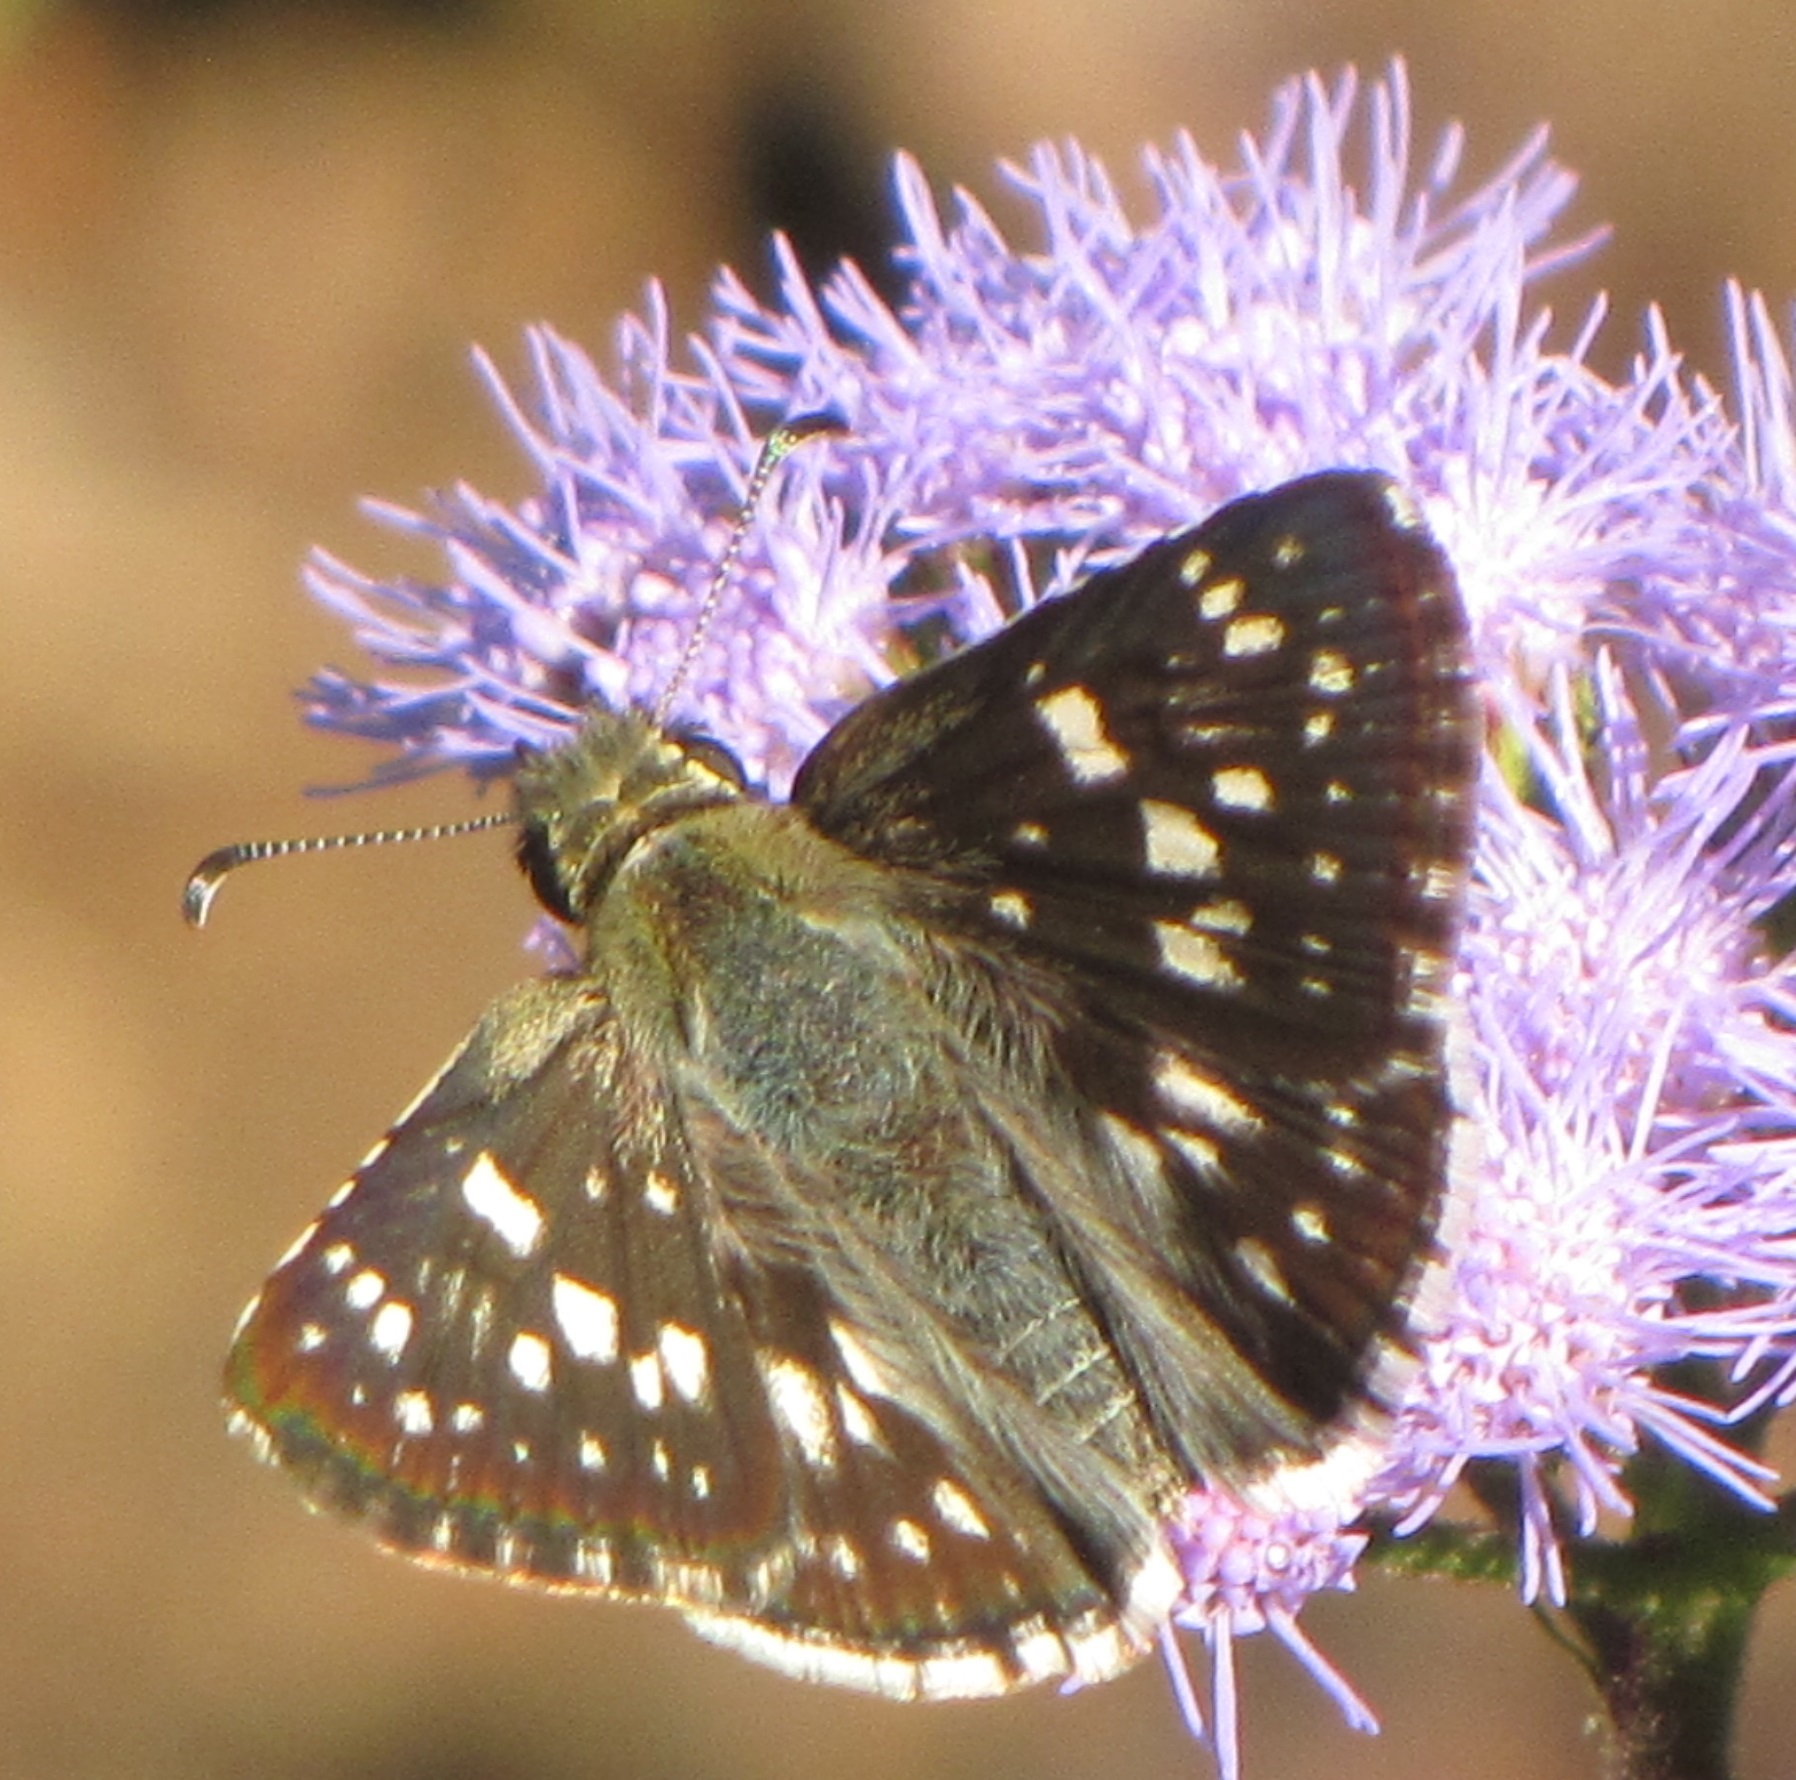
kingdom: Animalia
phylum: Arthropoda
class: Insecta
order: Lepidoptera
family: Hesperiidae
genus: Burnsius
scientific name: Burnsius communis
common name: Common checkered-skipper
